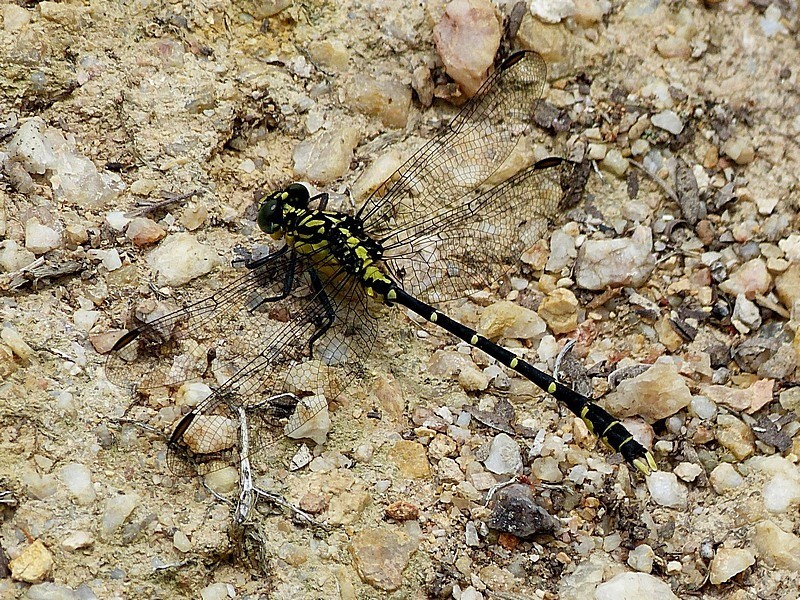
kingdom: Animalia
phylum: Arthropoda
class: Insecta
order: Odonata
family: Gomphidae
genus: Hemigomphus
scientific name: Hemigomphus gouldii
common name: Southern vicetail
